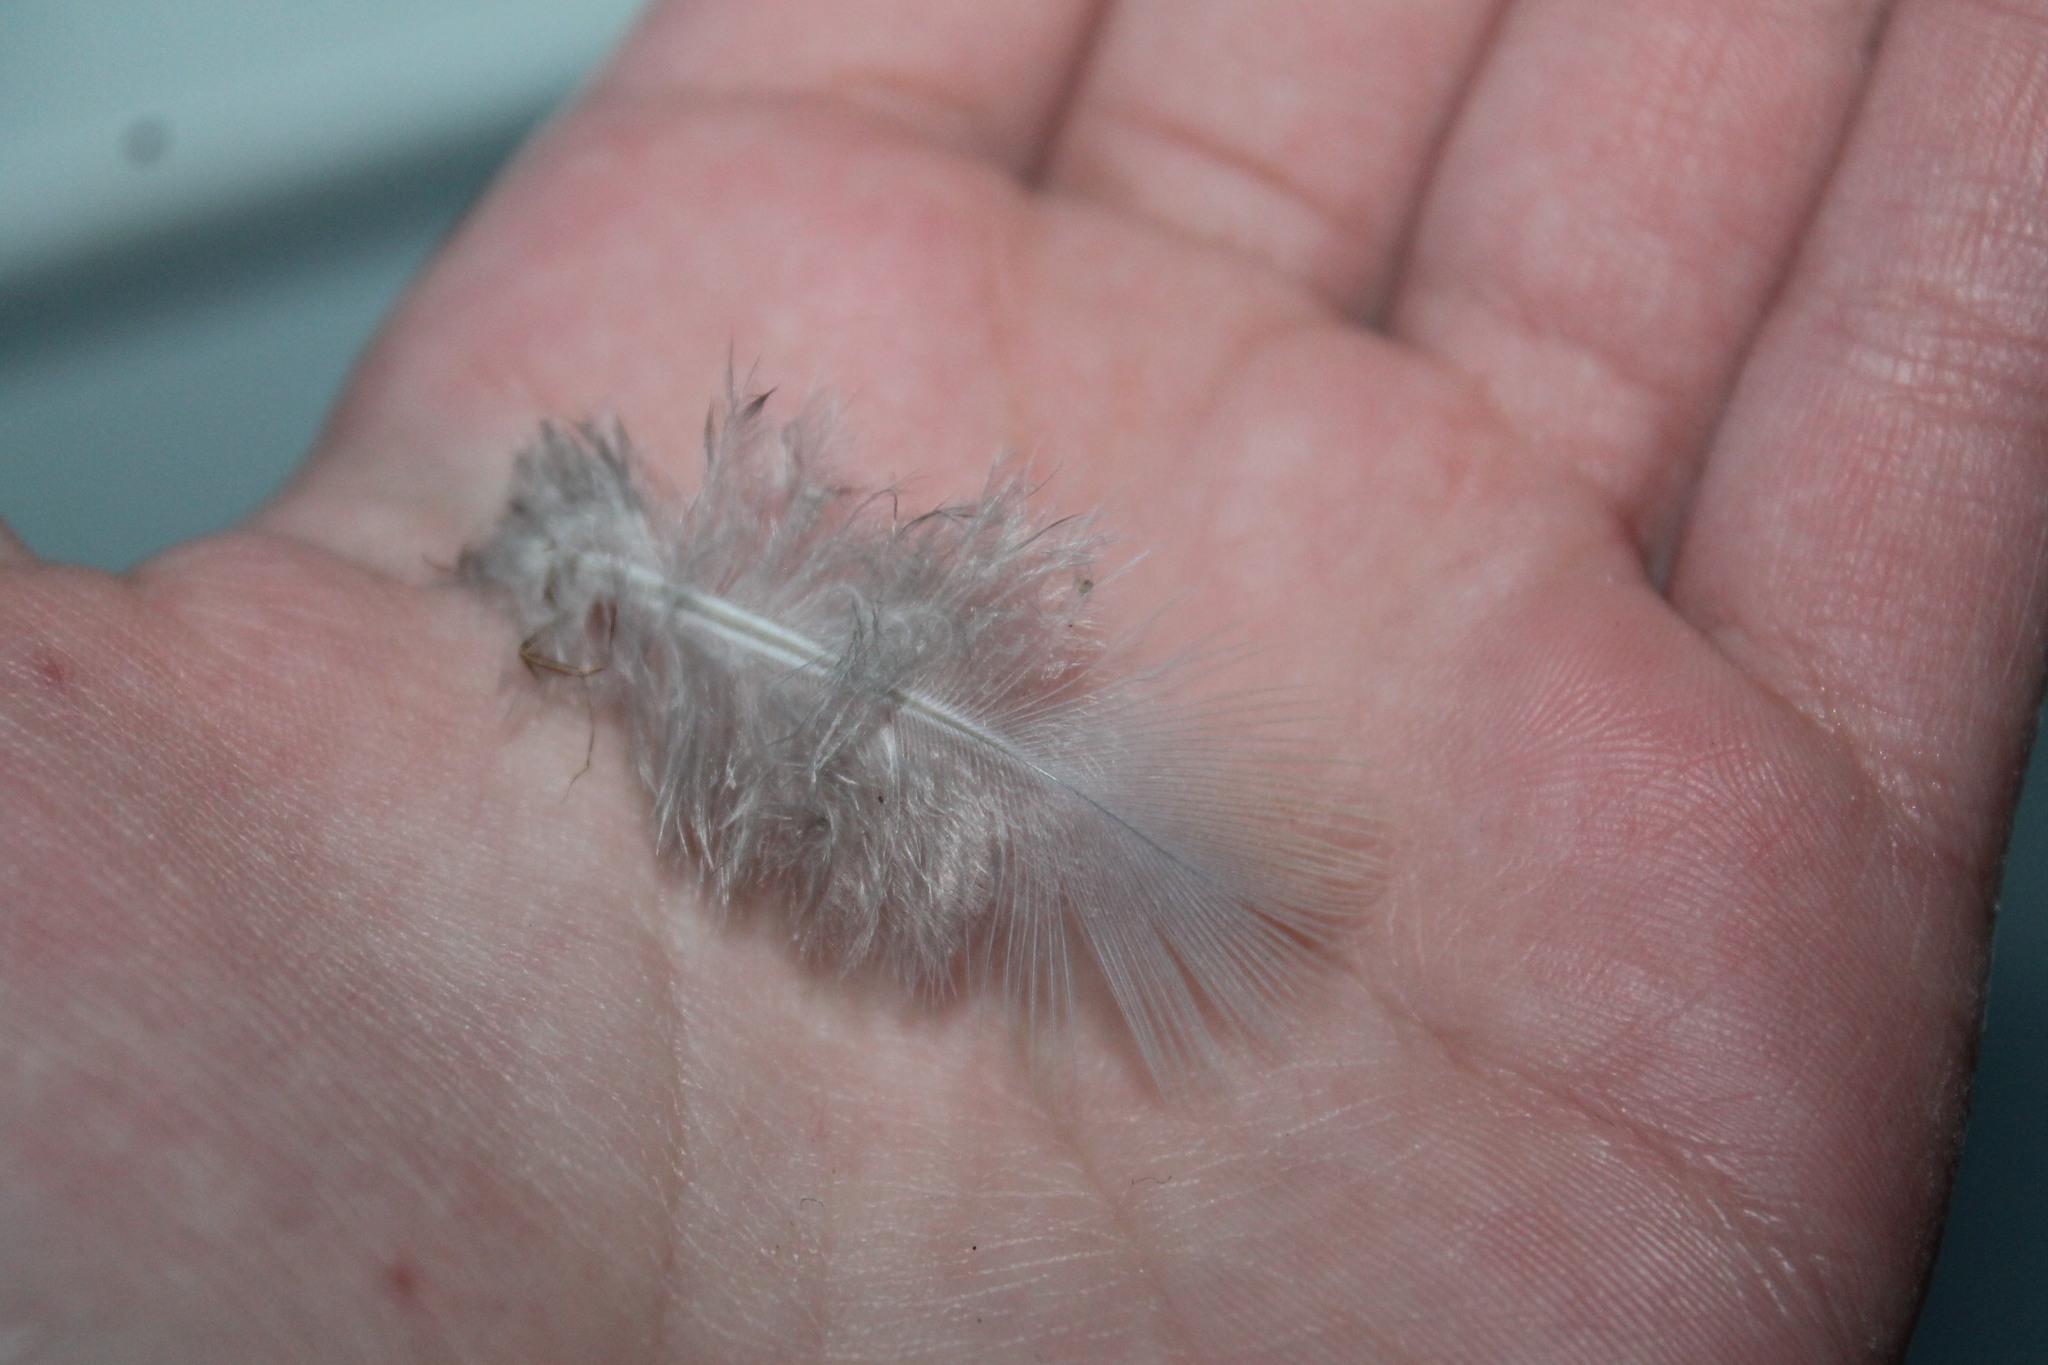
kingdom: Animalia
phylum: Chordata
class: Aves
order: Columbiformes
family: Columbidae
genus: Zenaida
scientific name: Zenaida macroura
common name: Mourning dove
